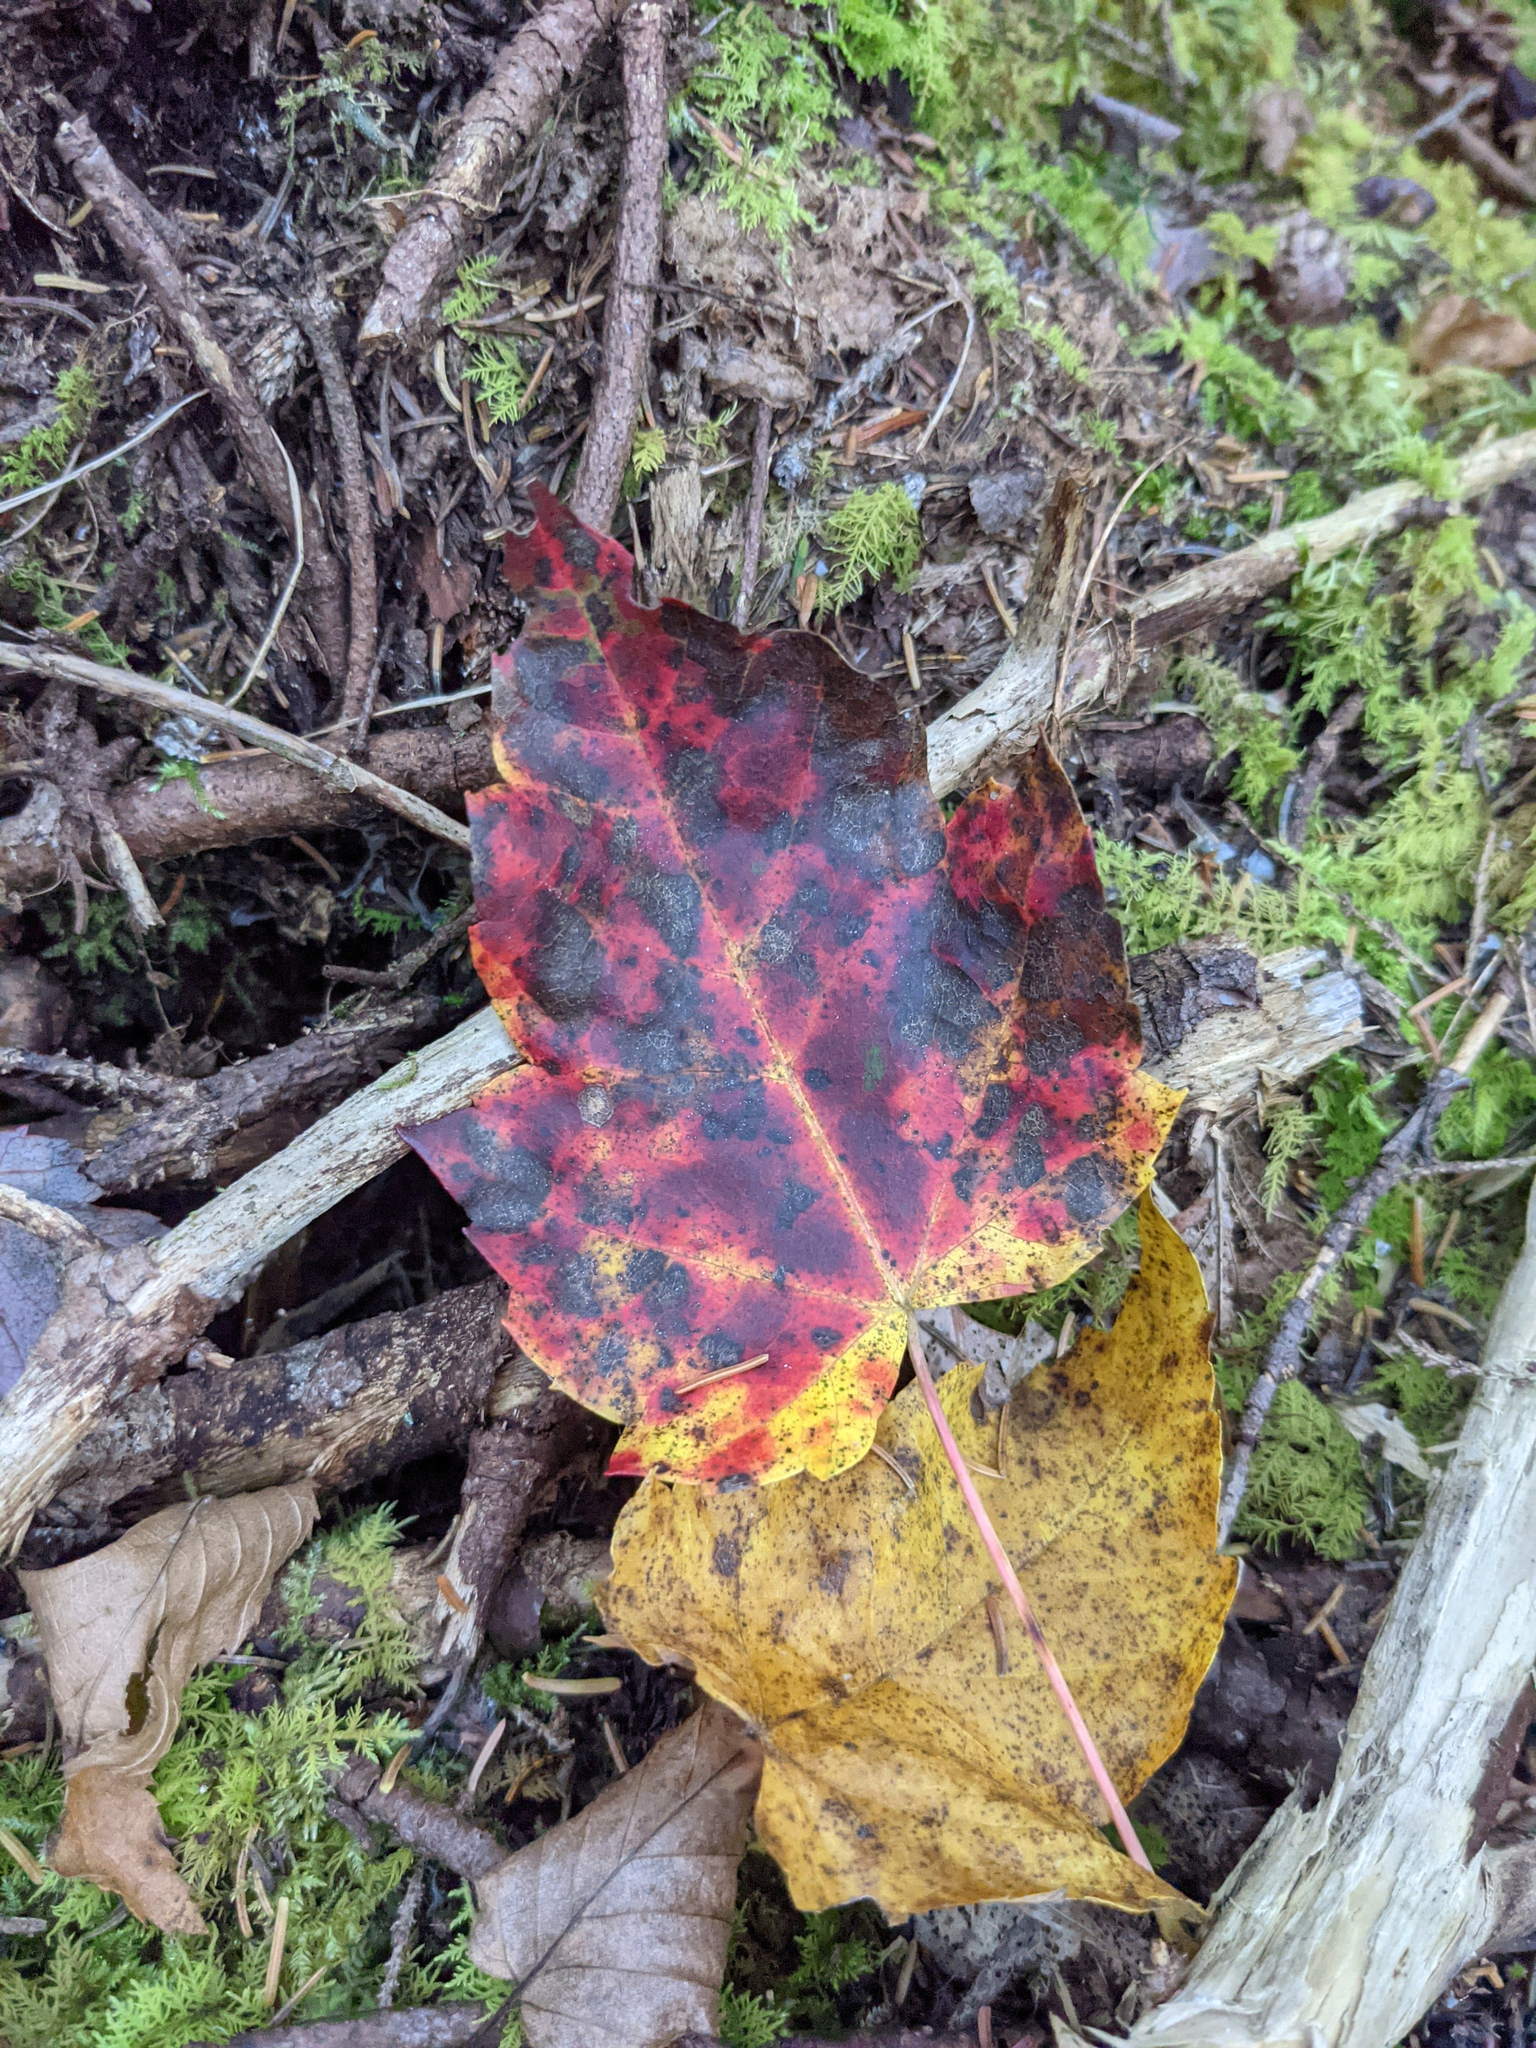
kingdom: Plantae
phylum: Tracheophyta
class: Magnoliopsida
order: Sapindales
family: Sapindaceae
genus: Acer
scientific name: Acer rubrum
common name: Red maple
